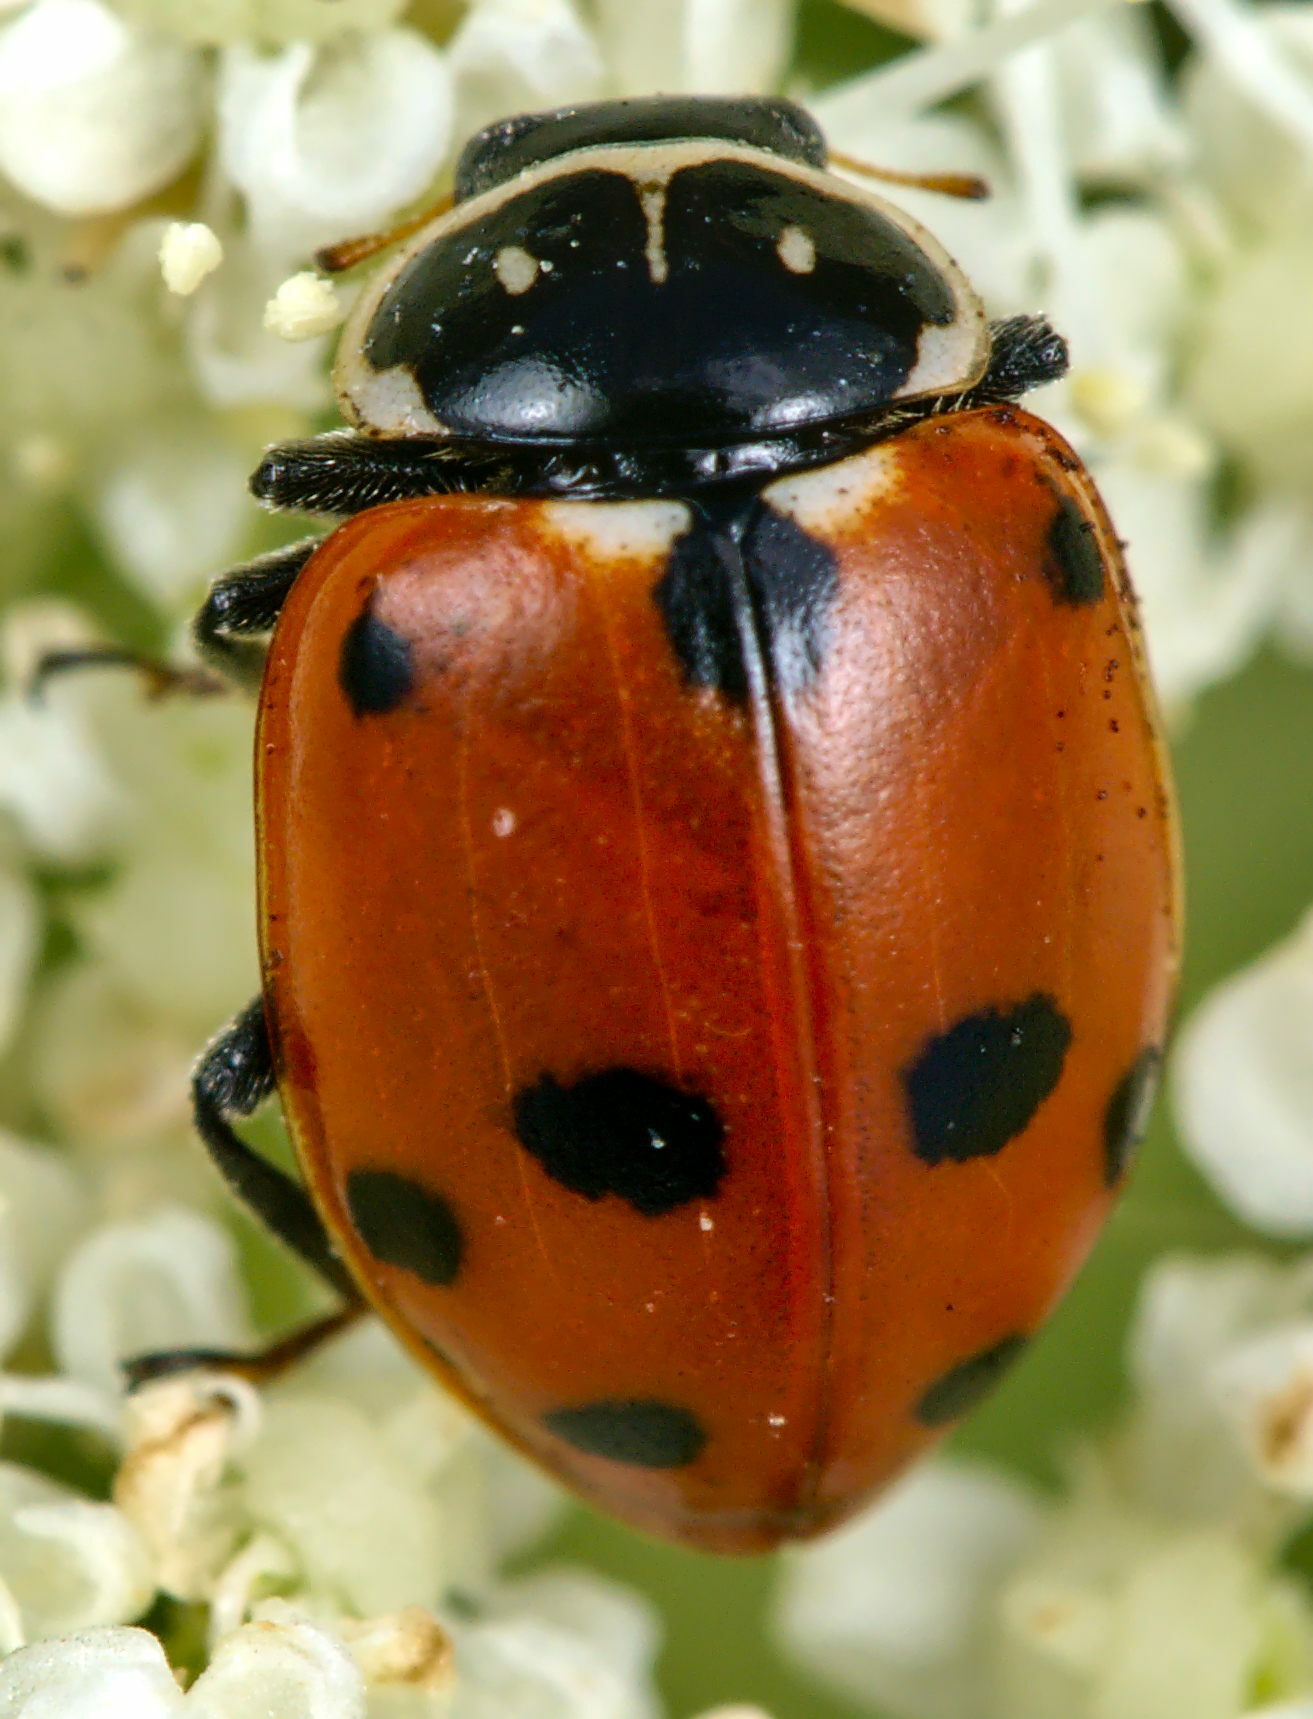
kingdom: Animalia
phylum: Arthropoda
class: Insecta
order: Coleoptera
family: Coccinellidae
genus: Hippodamia
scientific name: Hippodamia variegata
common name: Ladybird beetle
